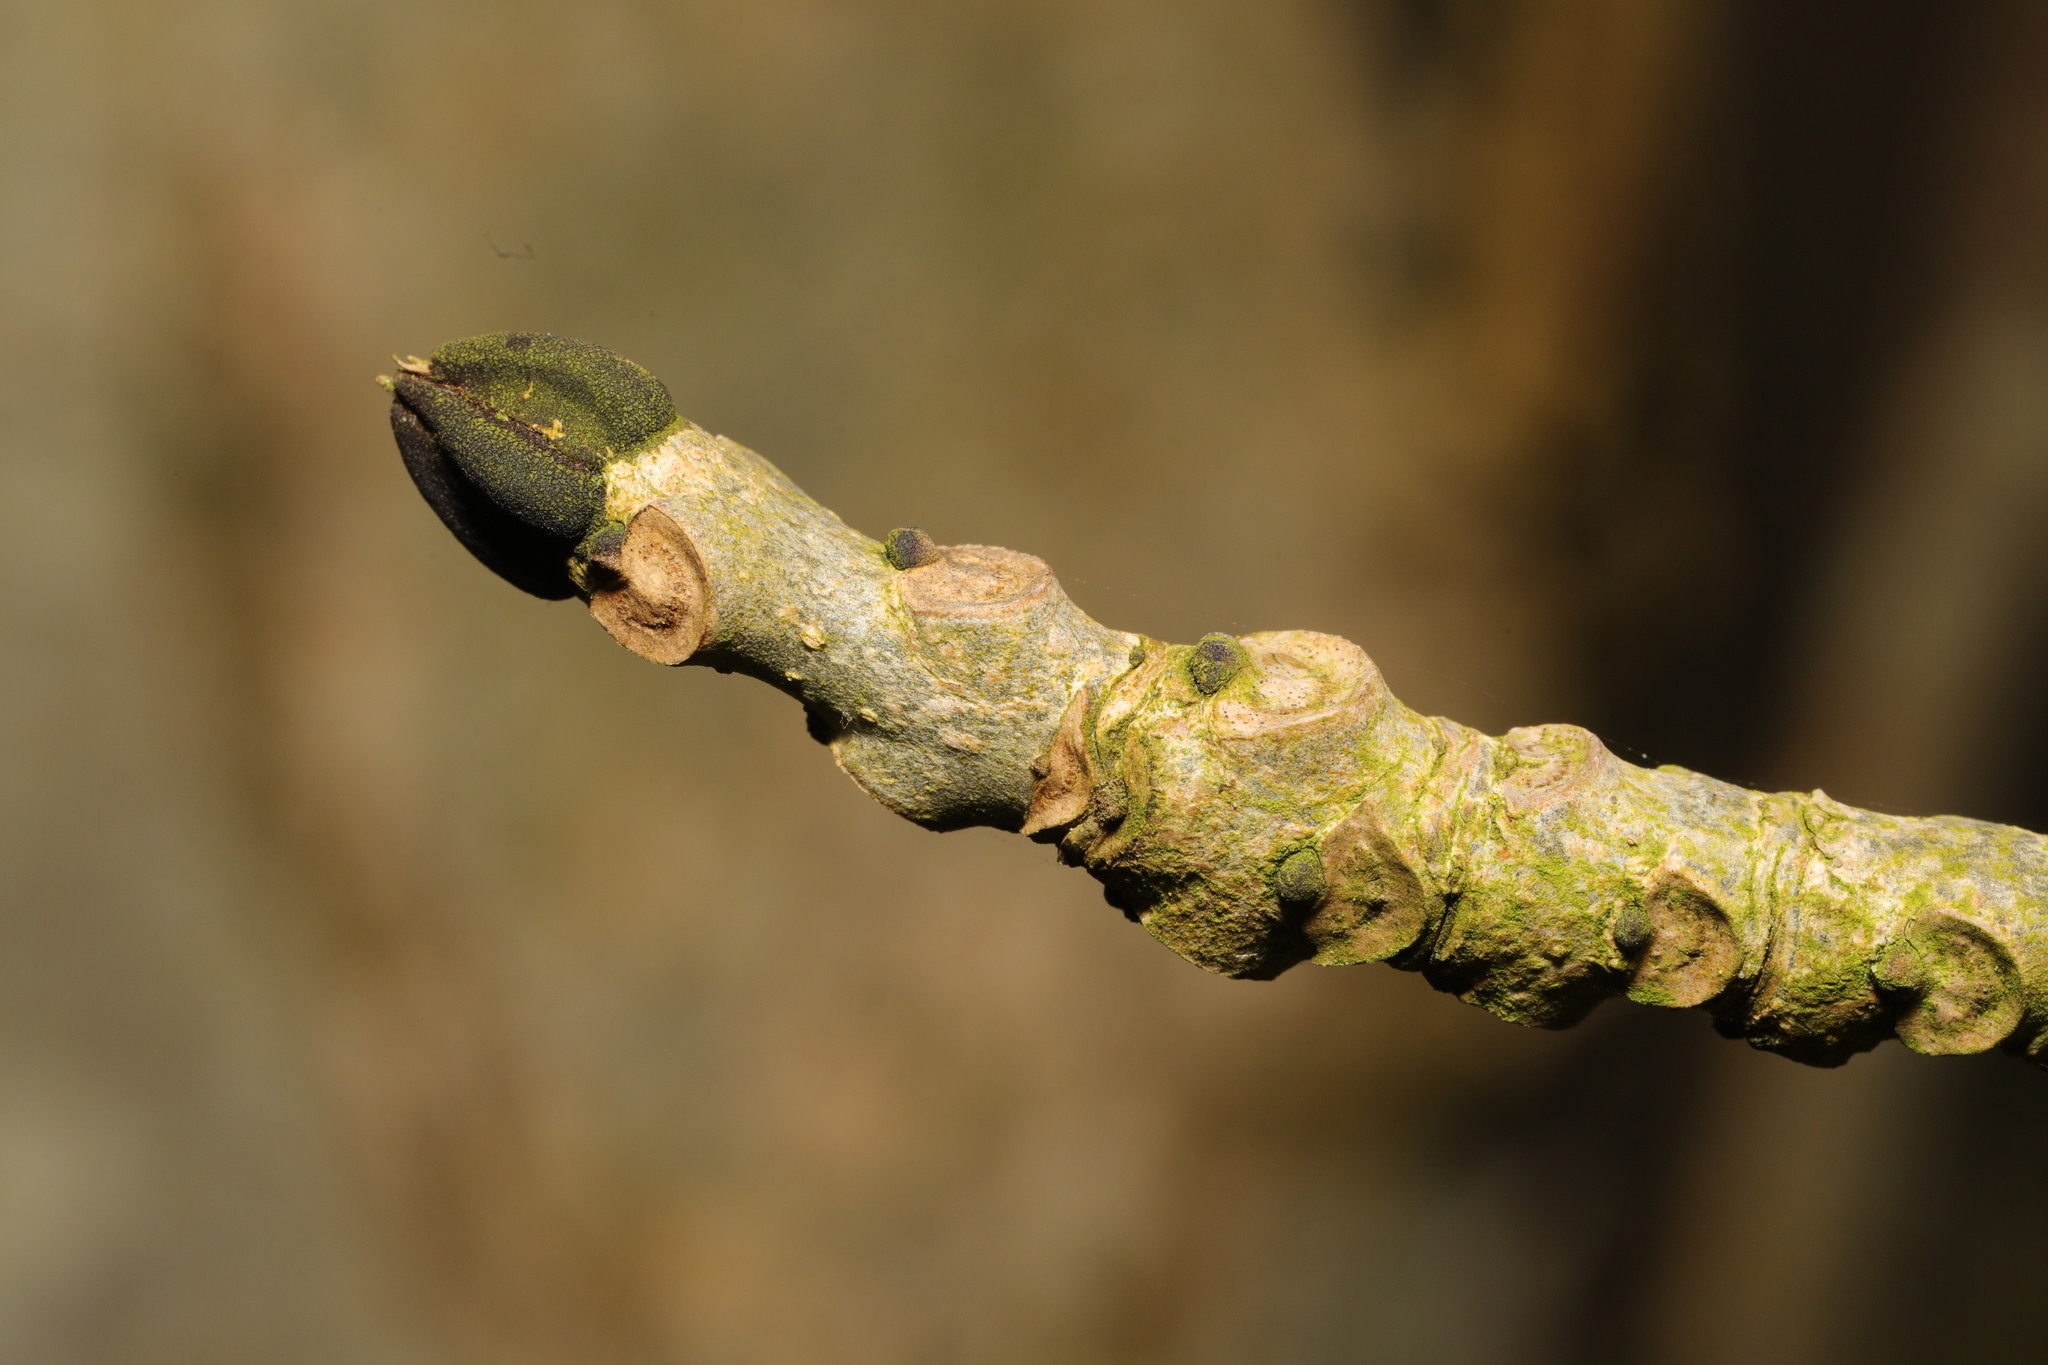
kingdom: Plantae
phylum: Tracheophyta
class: Magnoliopsida
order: Lamiales
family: Oleaceae
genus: Fraxinus
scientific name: Fraxinus excelsior
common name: European ash
